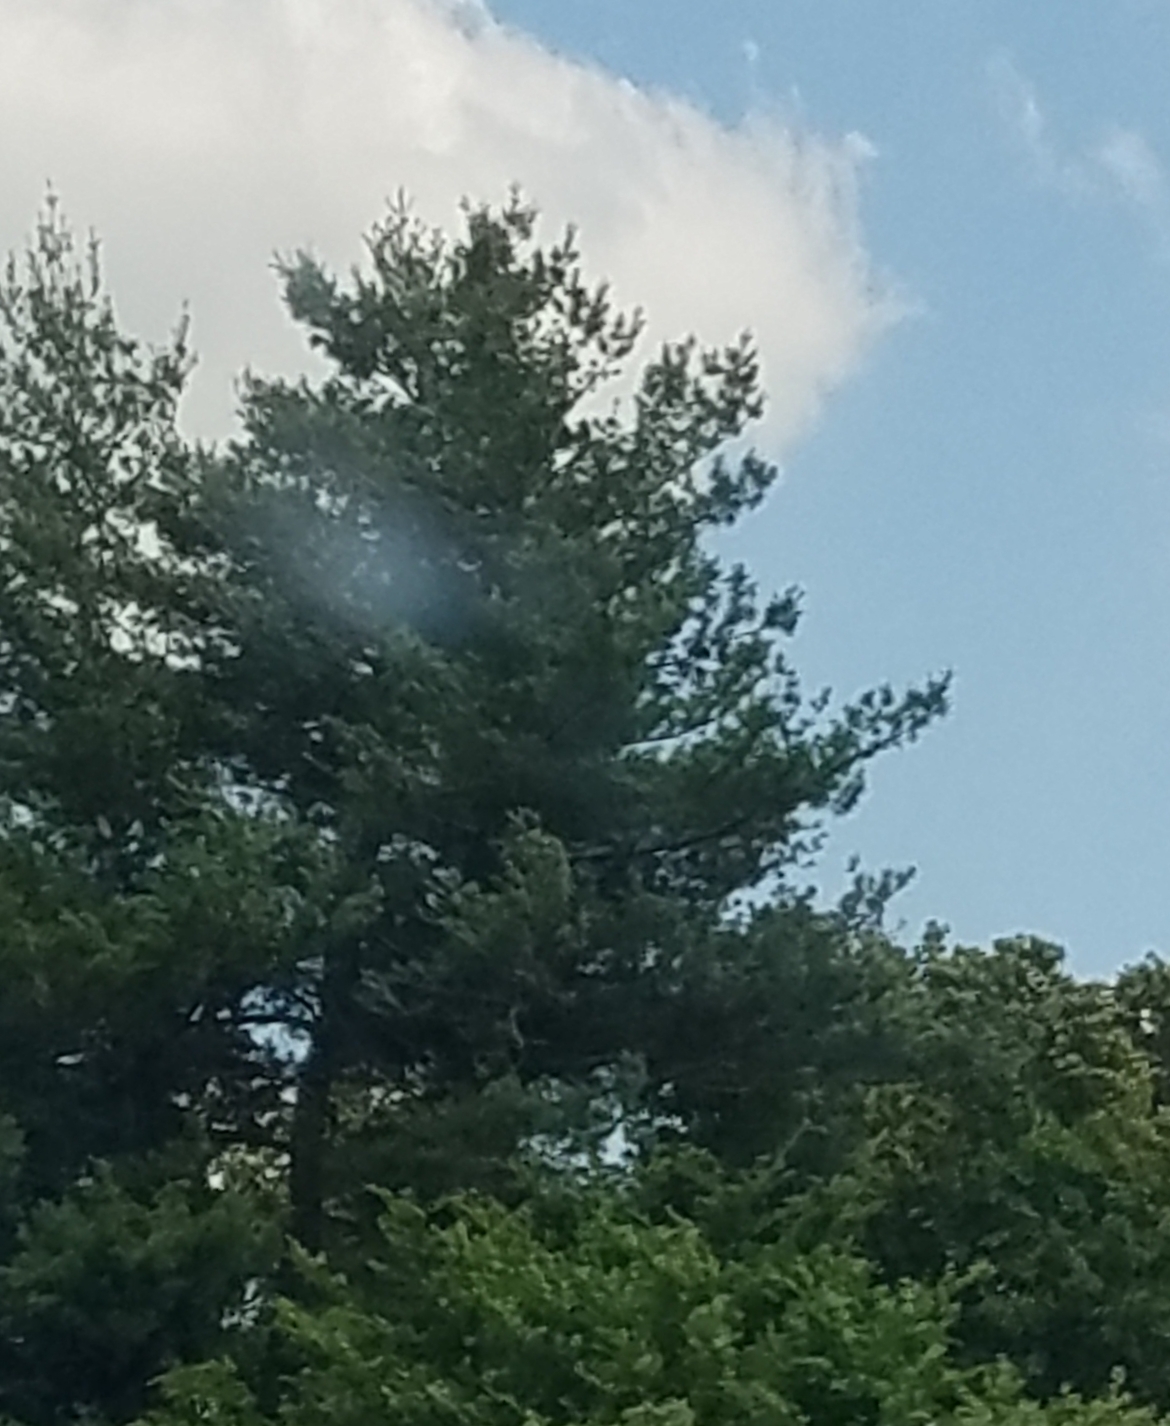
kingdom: Plantae
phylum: Tracheophyta
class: Pinopsida
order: Pinales
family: Pinaceae
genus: Pinus
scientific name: Pinus strobus
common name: Weymouth pine
